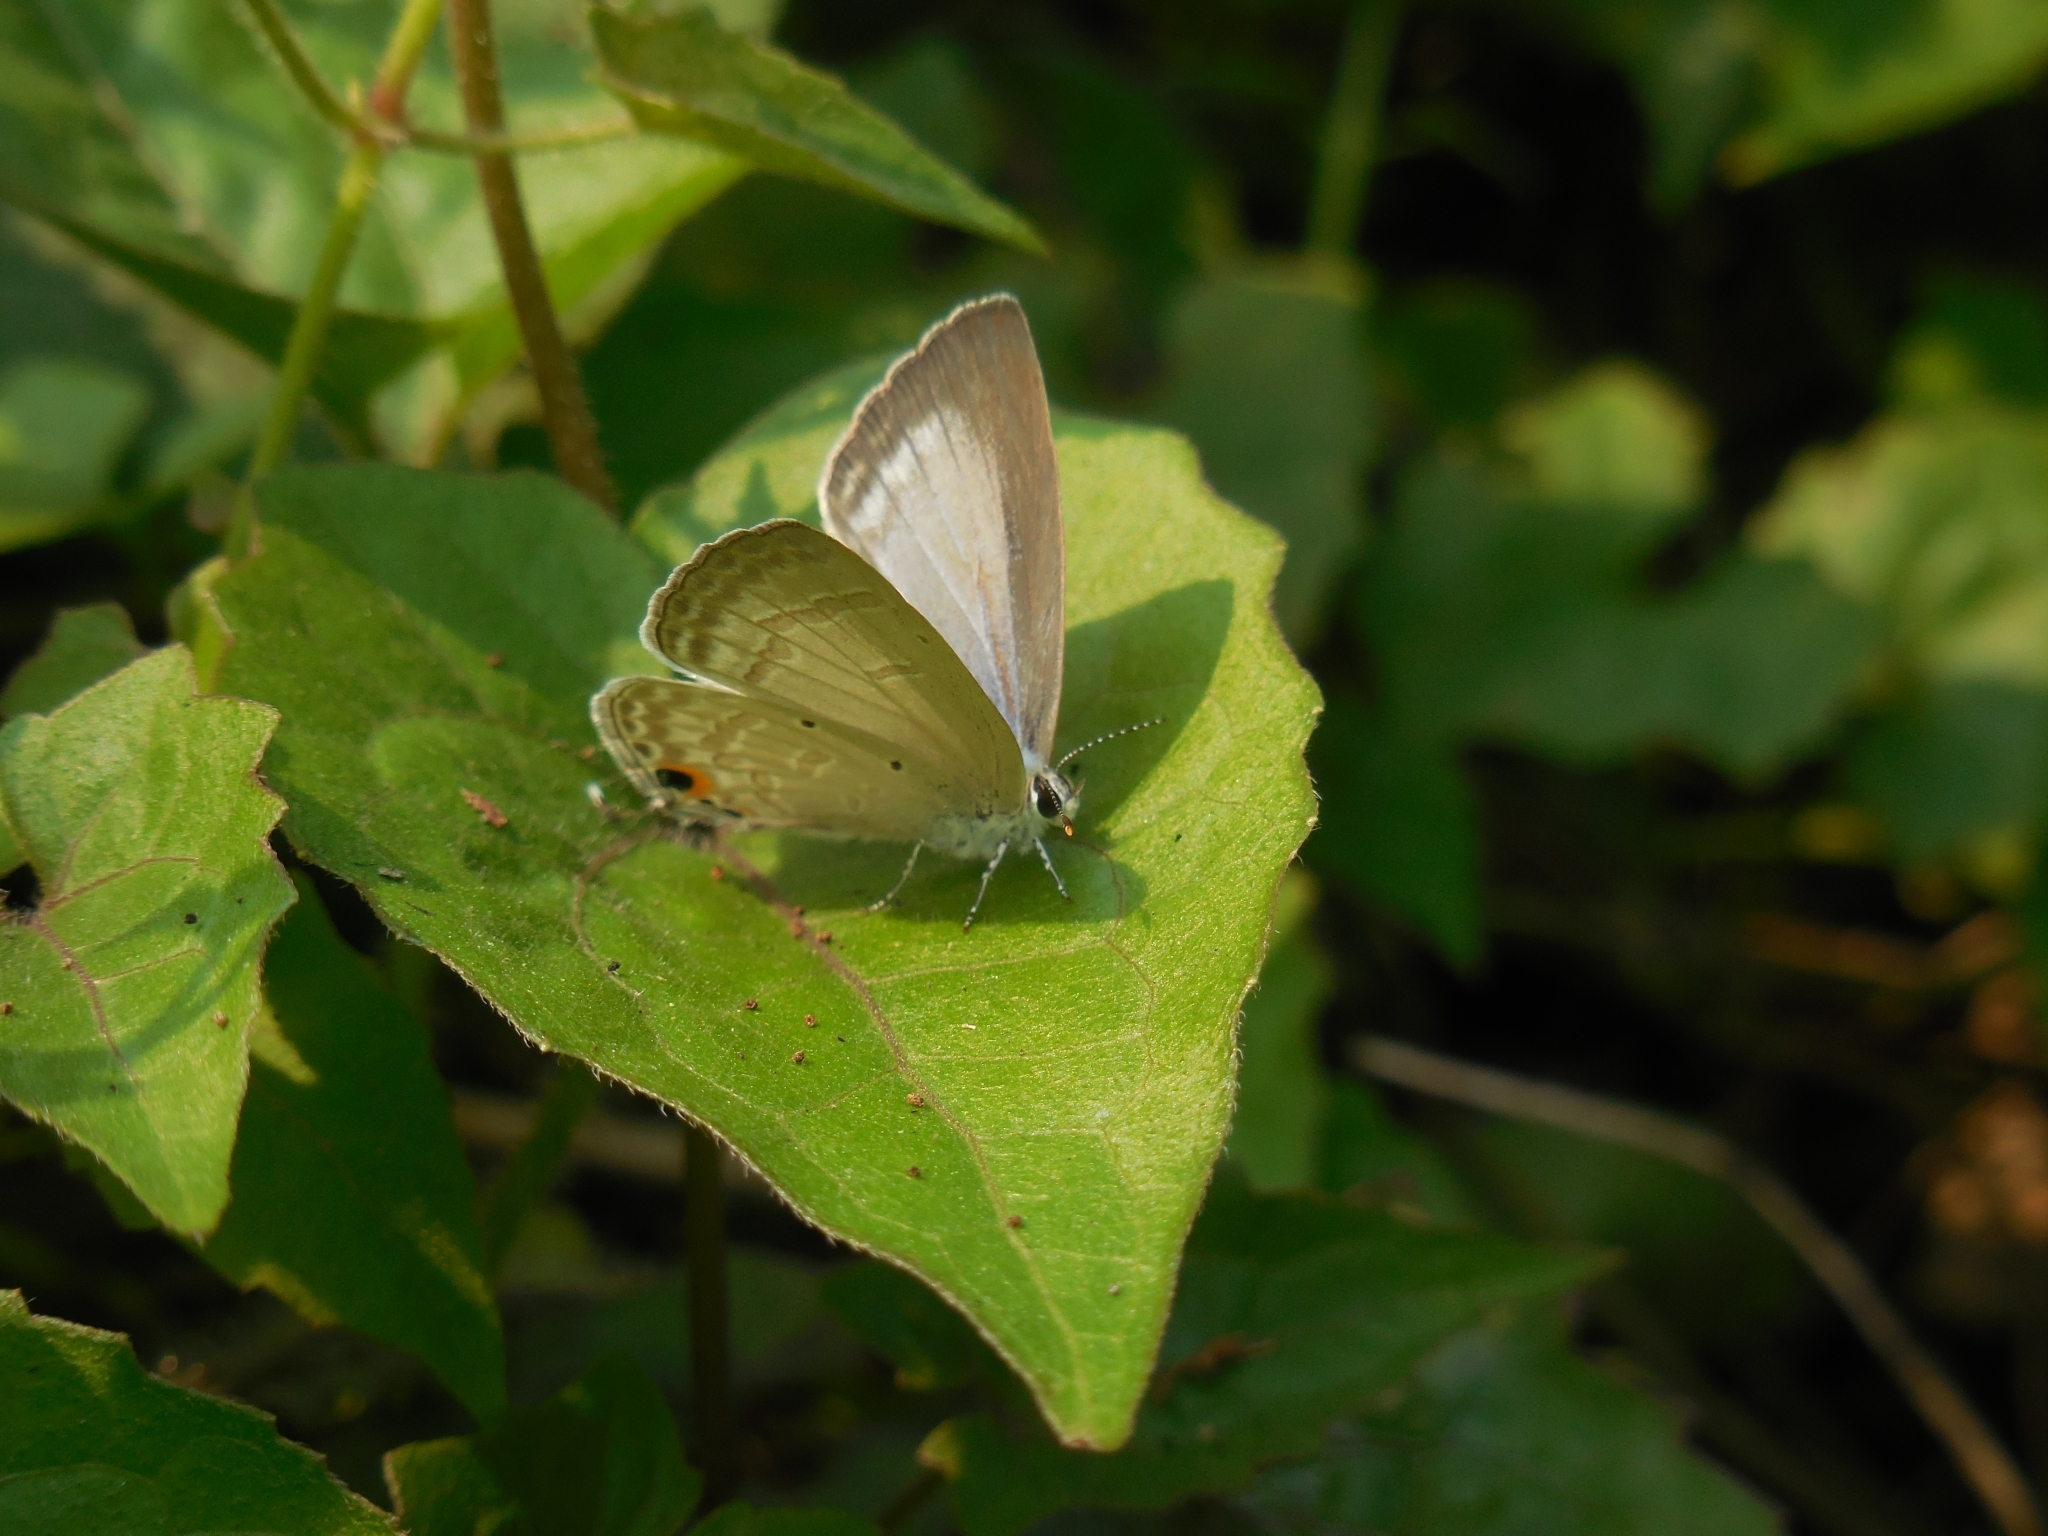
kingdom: Animalia
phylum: Arthropoda
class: Insecta
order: Lepidoptera
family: Lycaenidae
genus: Catochrysops
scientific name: Catochrysops strabo
